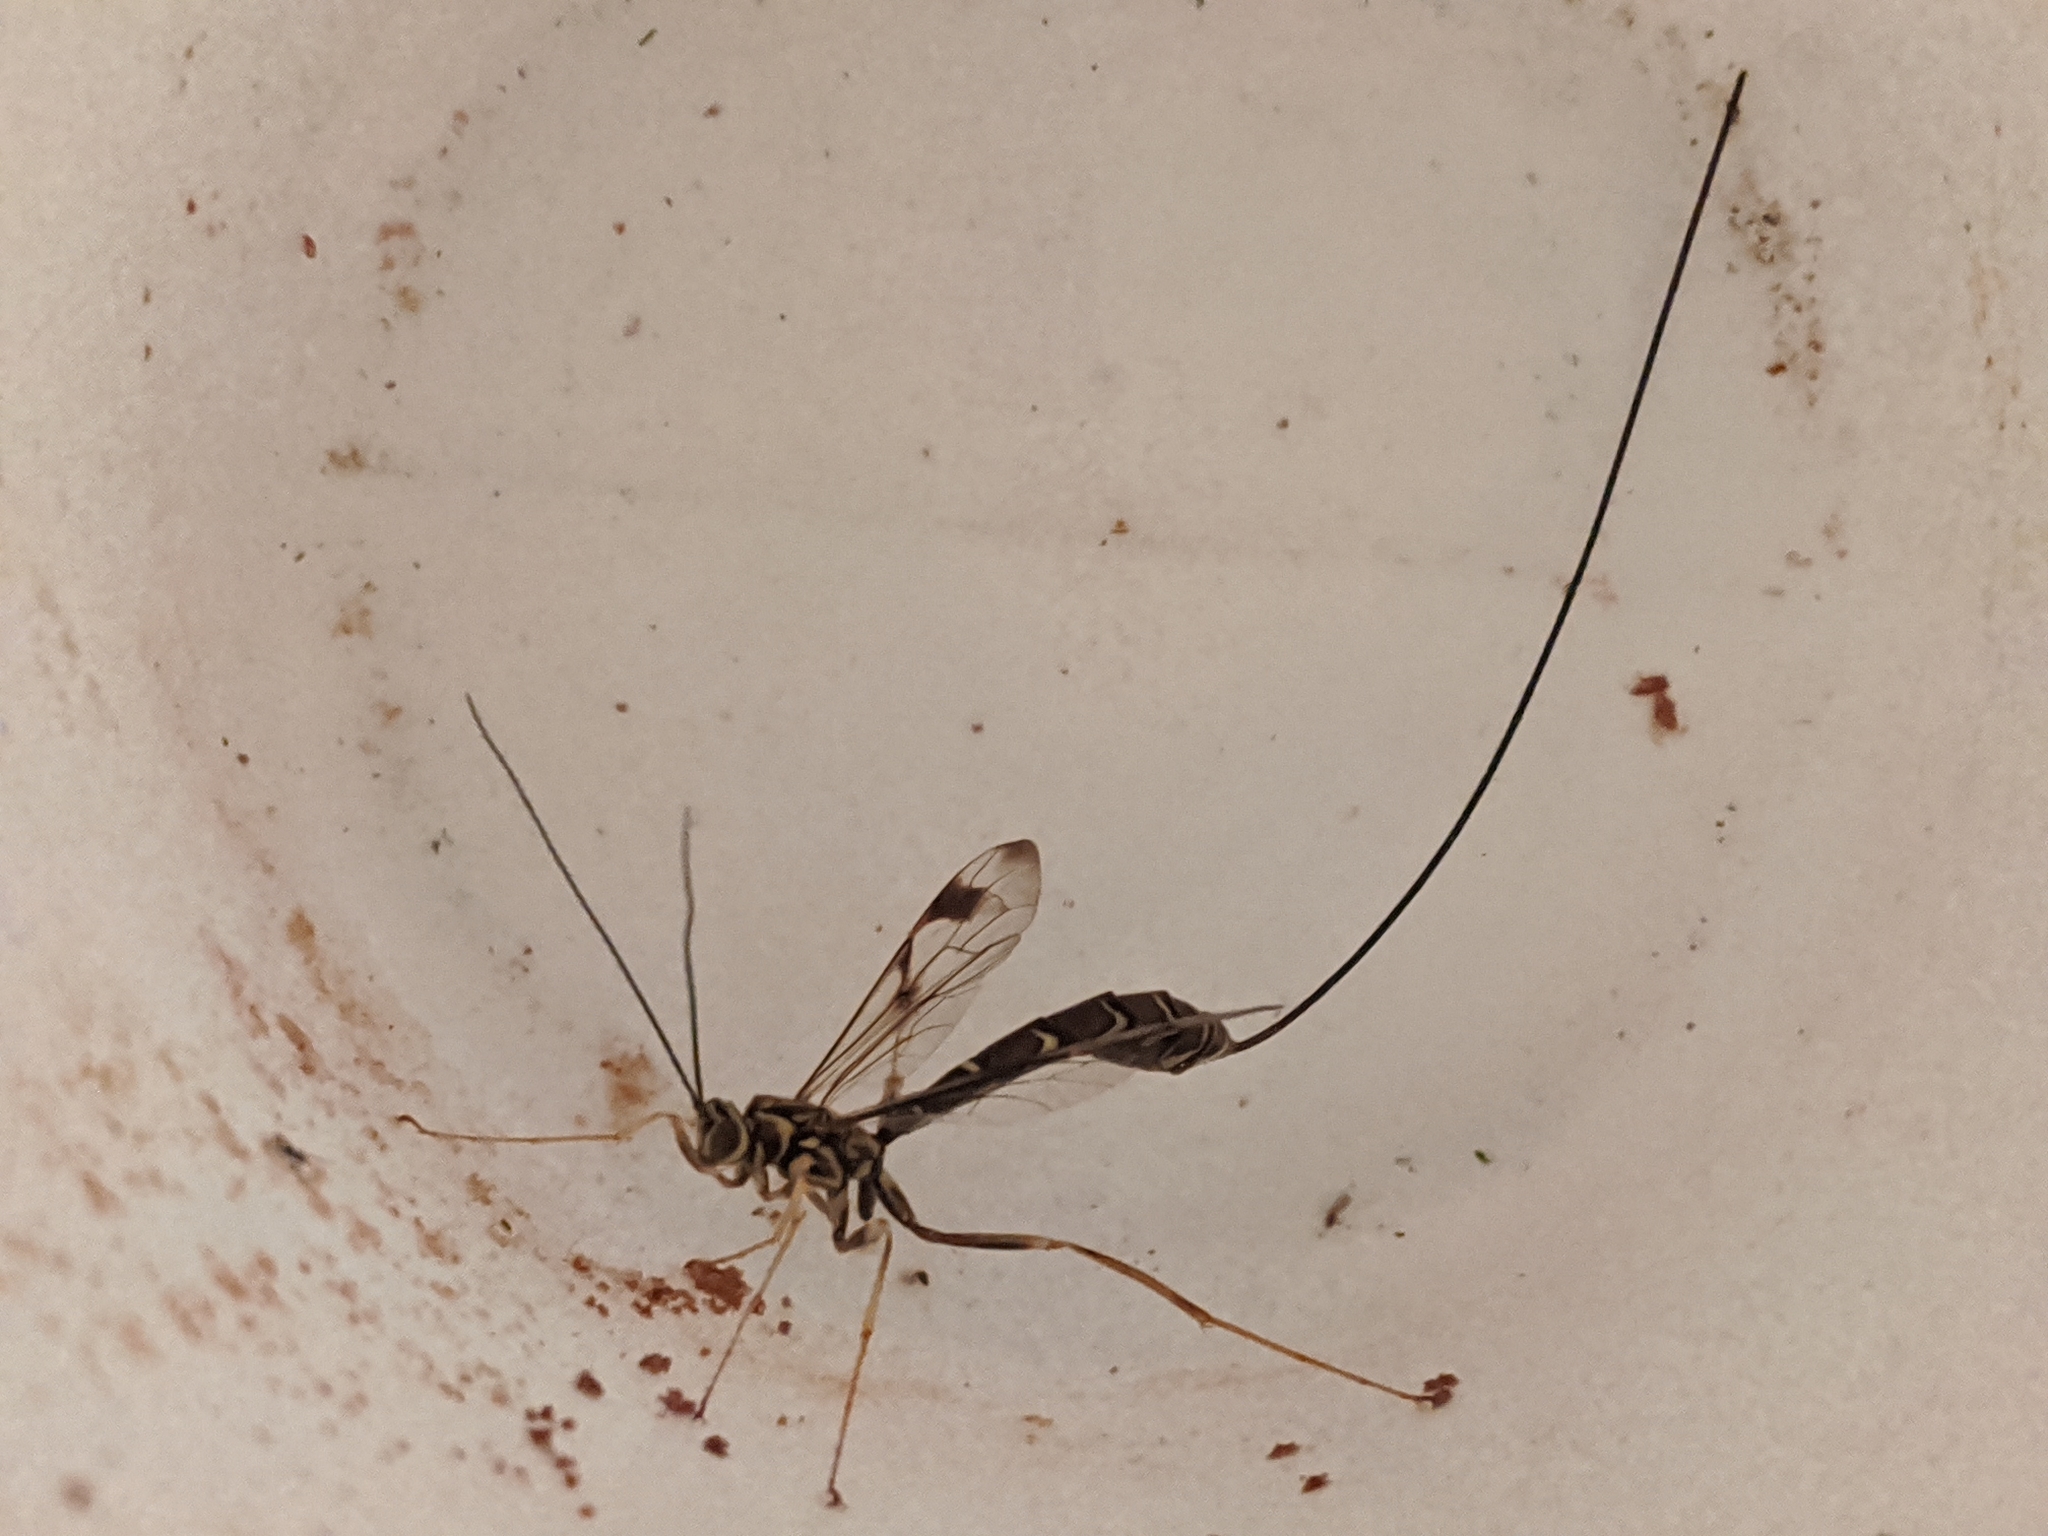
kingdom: Animalia
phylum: Arthropoda
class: Insecta
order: Hymenoptera
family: Ichneumonidae
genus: Megarhyssa
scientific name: Megarhyssa macrura
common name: Long-tailed giant ichneumonid wasp
